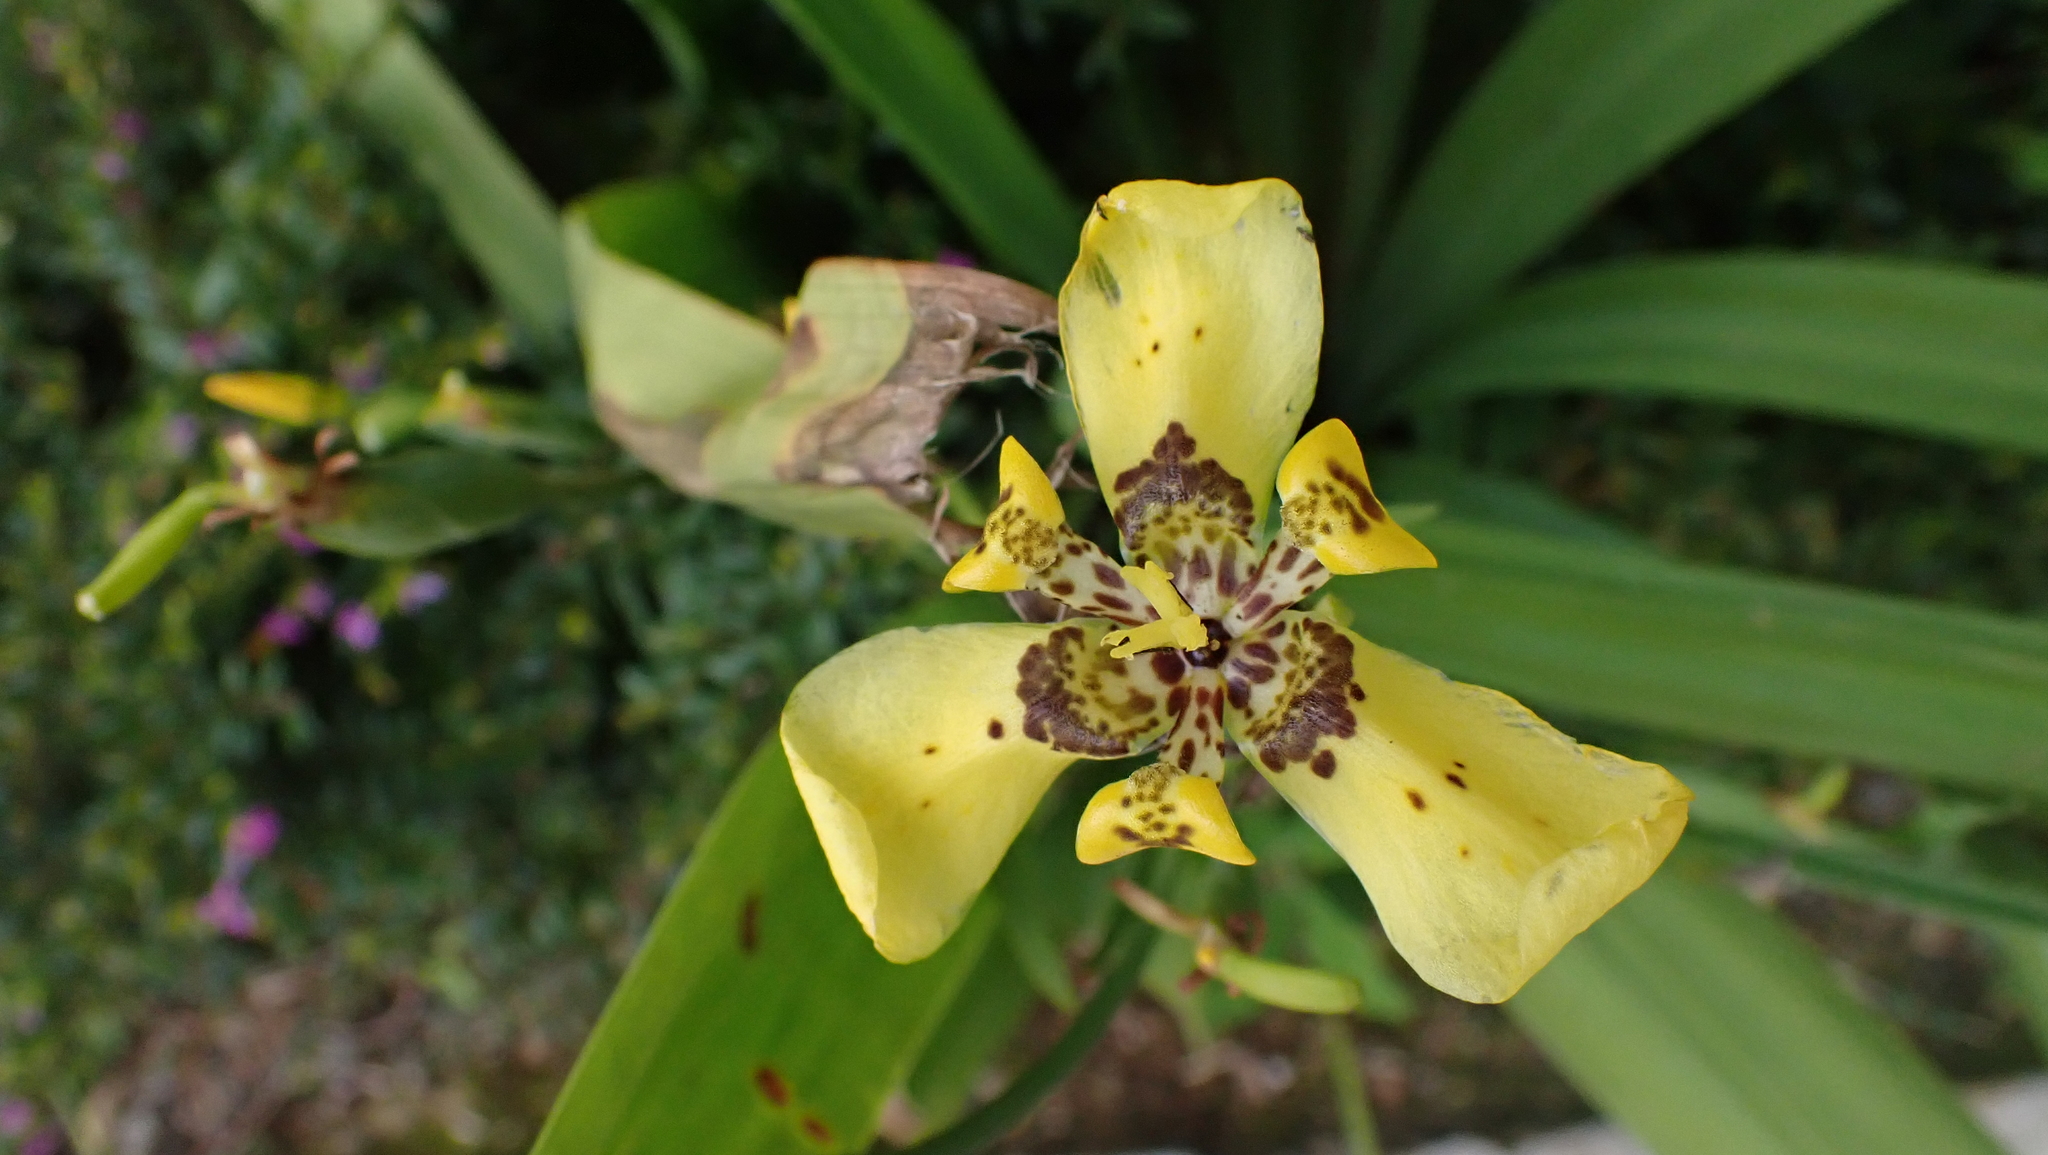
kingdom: Plantae
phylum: Tracheophyta
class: Liliopsida
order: Asparagales
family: Iridaceae
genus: Trimezia
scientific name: Trimezia steyermarkii
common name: Trimezia
